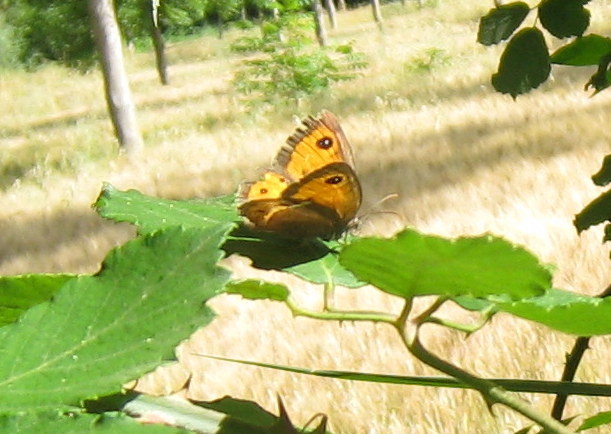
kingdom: Animalia
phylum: Arthropoda
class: Insecta
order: Lepidoptera
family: Nymphalidae
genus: Pyronia
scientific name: Pyronia bathseba
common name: Spanish gatekeeper
